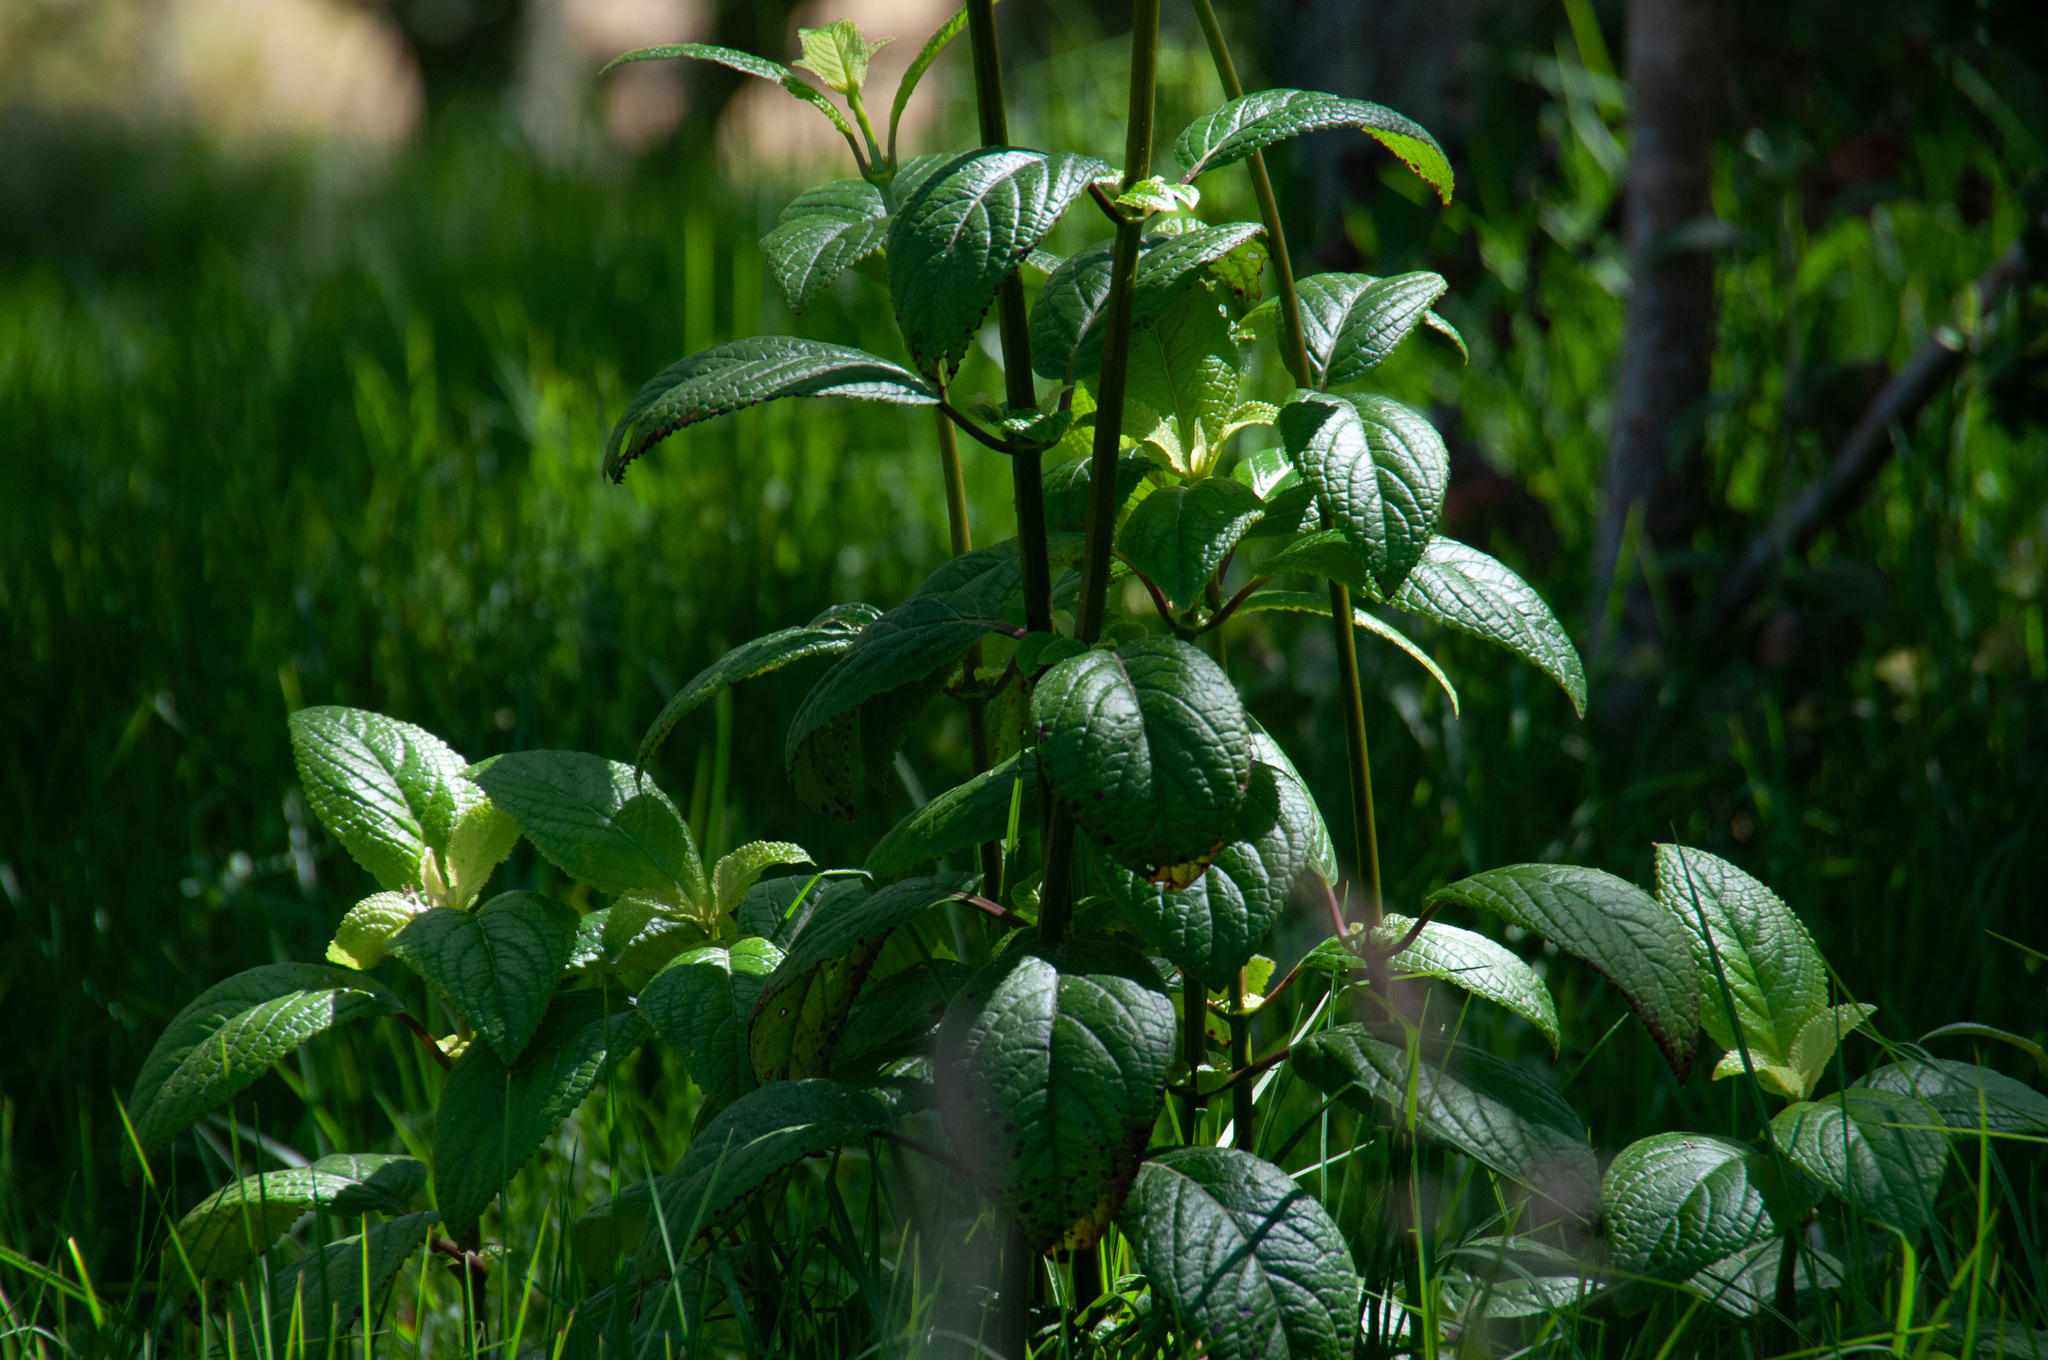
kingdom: Plantae
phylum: Tracheophyta
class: Magnoliopsida
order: Lamiales
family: Lamiaceae
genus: Stenogyne
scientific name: Stenogyne calaminthoides
